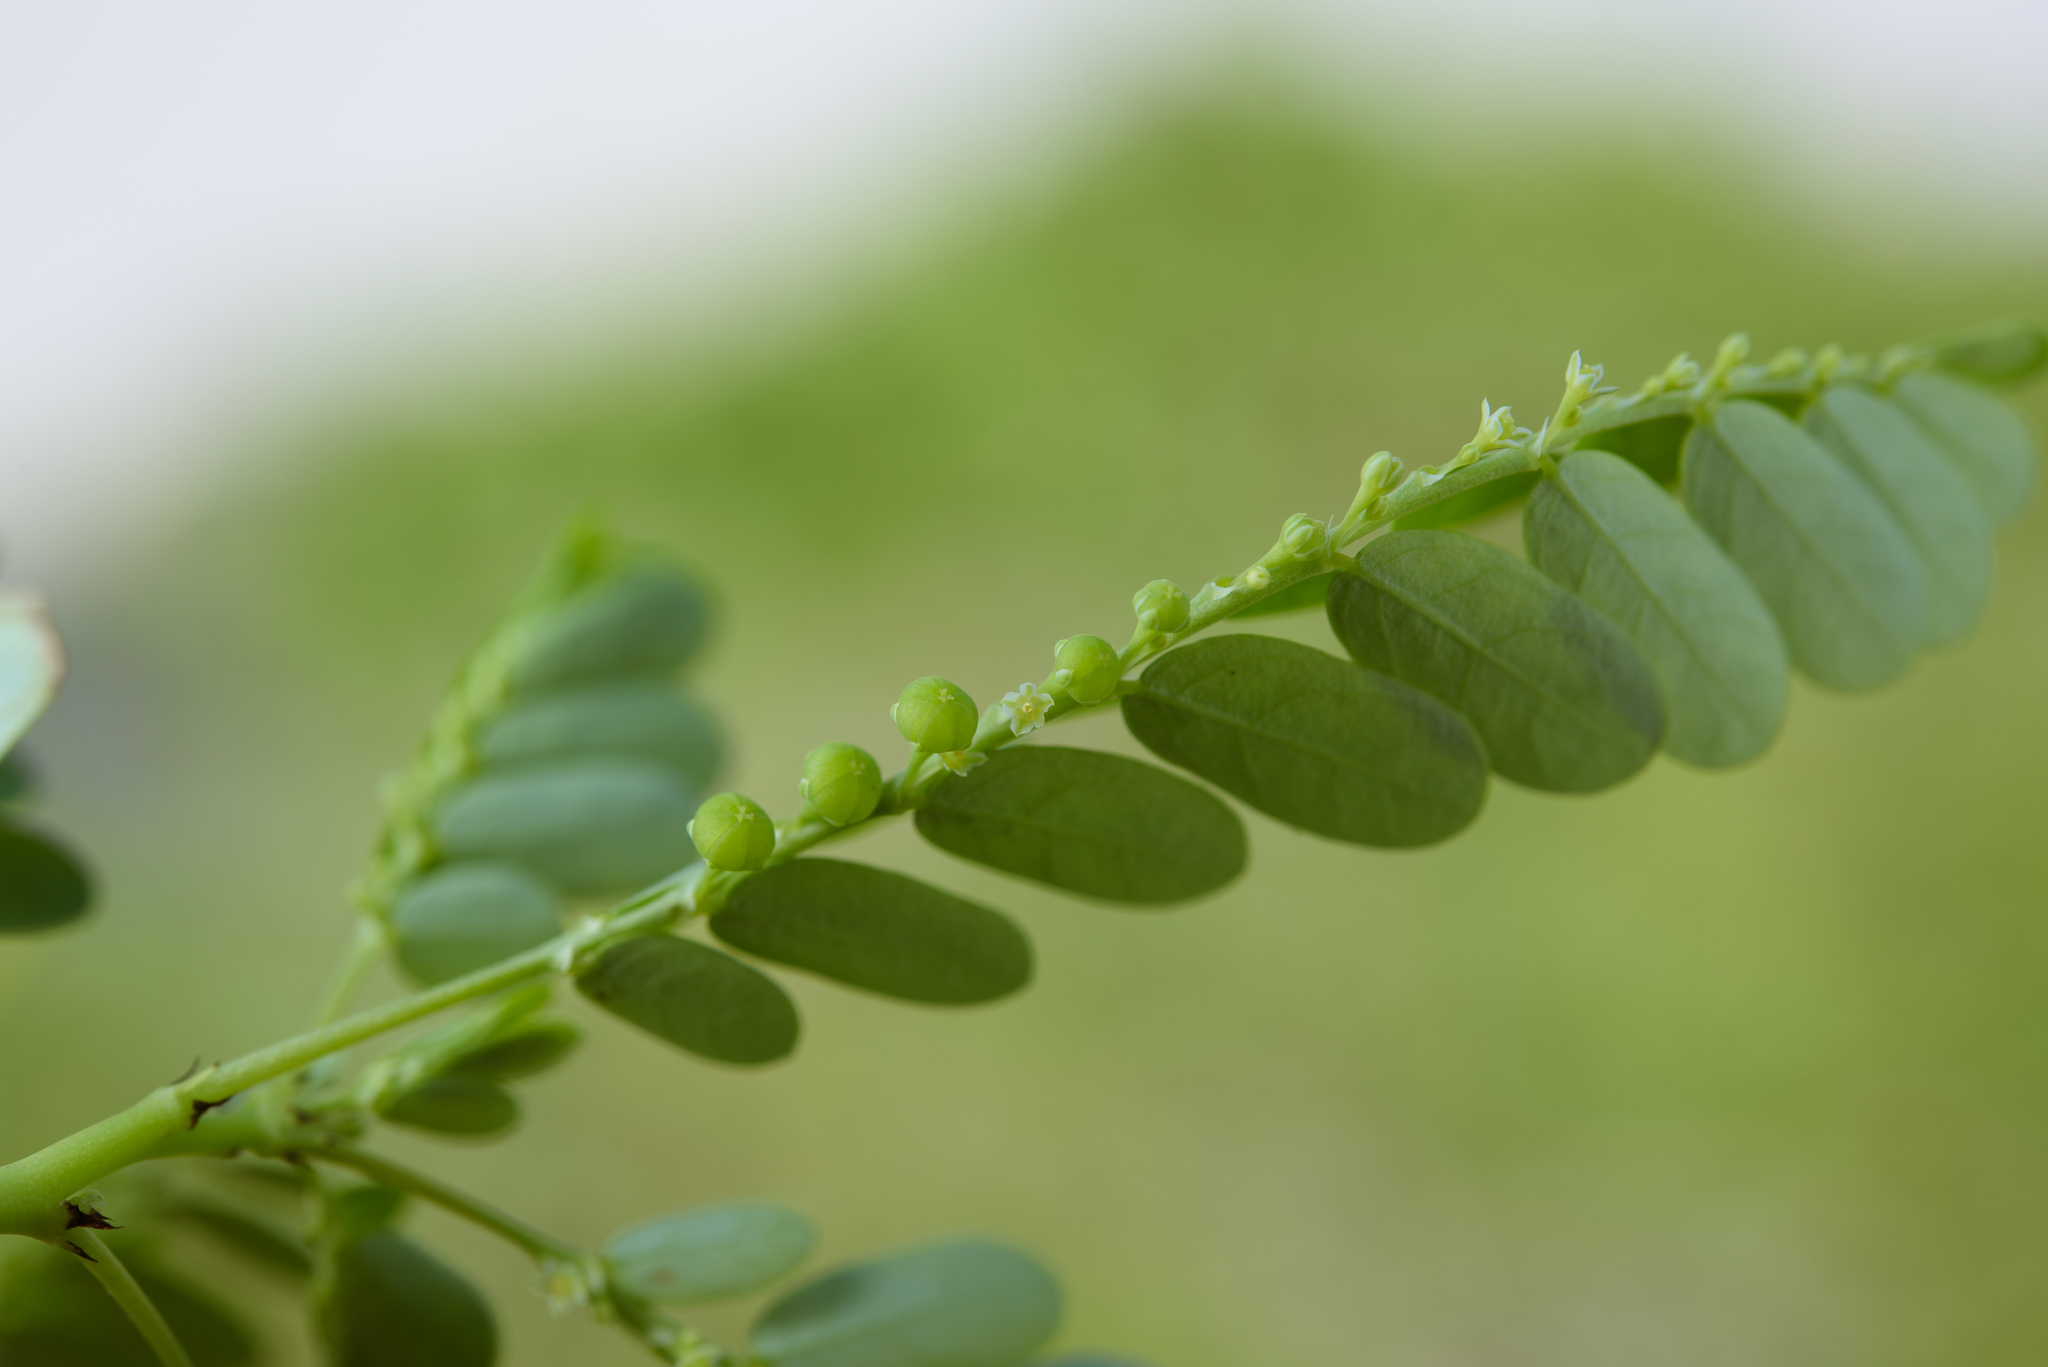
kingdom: Plantae
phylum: Tracheophyta
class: Magnoliopsida
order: Malpighiales
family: Phyllanthaceae
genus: Phyllanthus
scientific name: Phyllanthus tenellus
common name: Mascarene island leaf-flower
